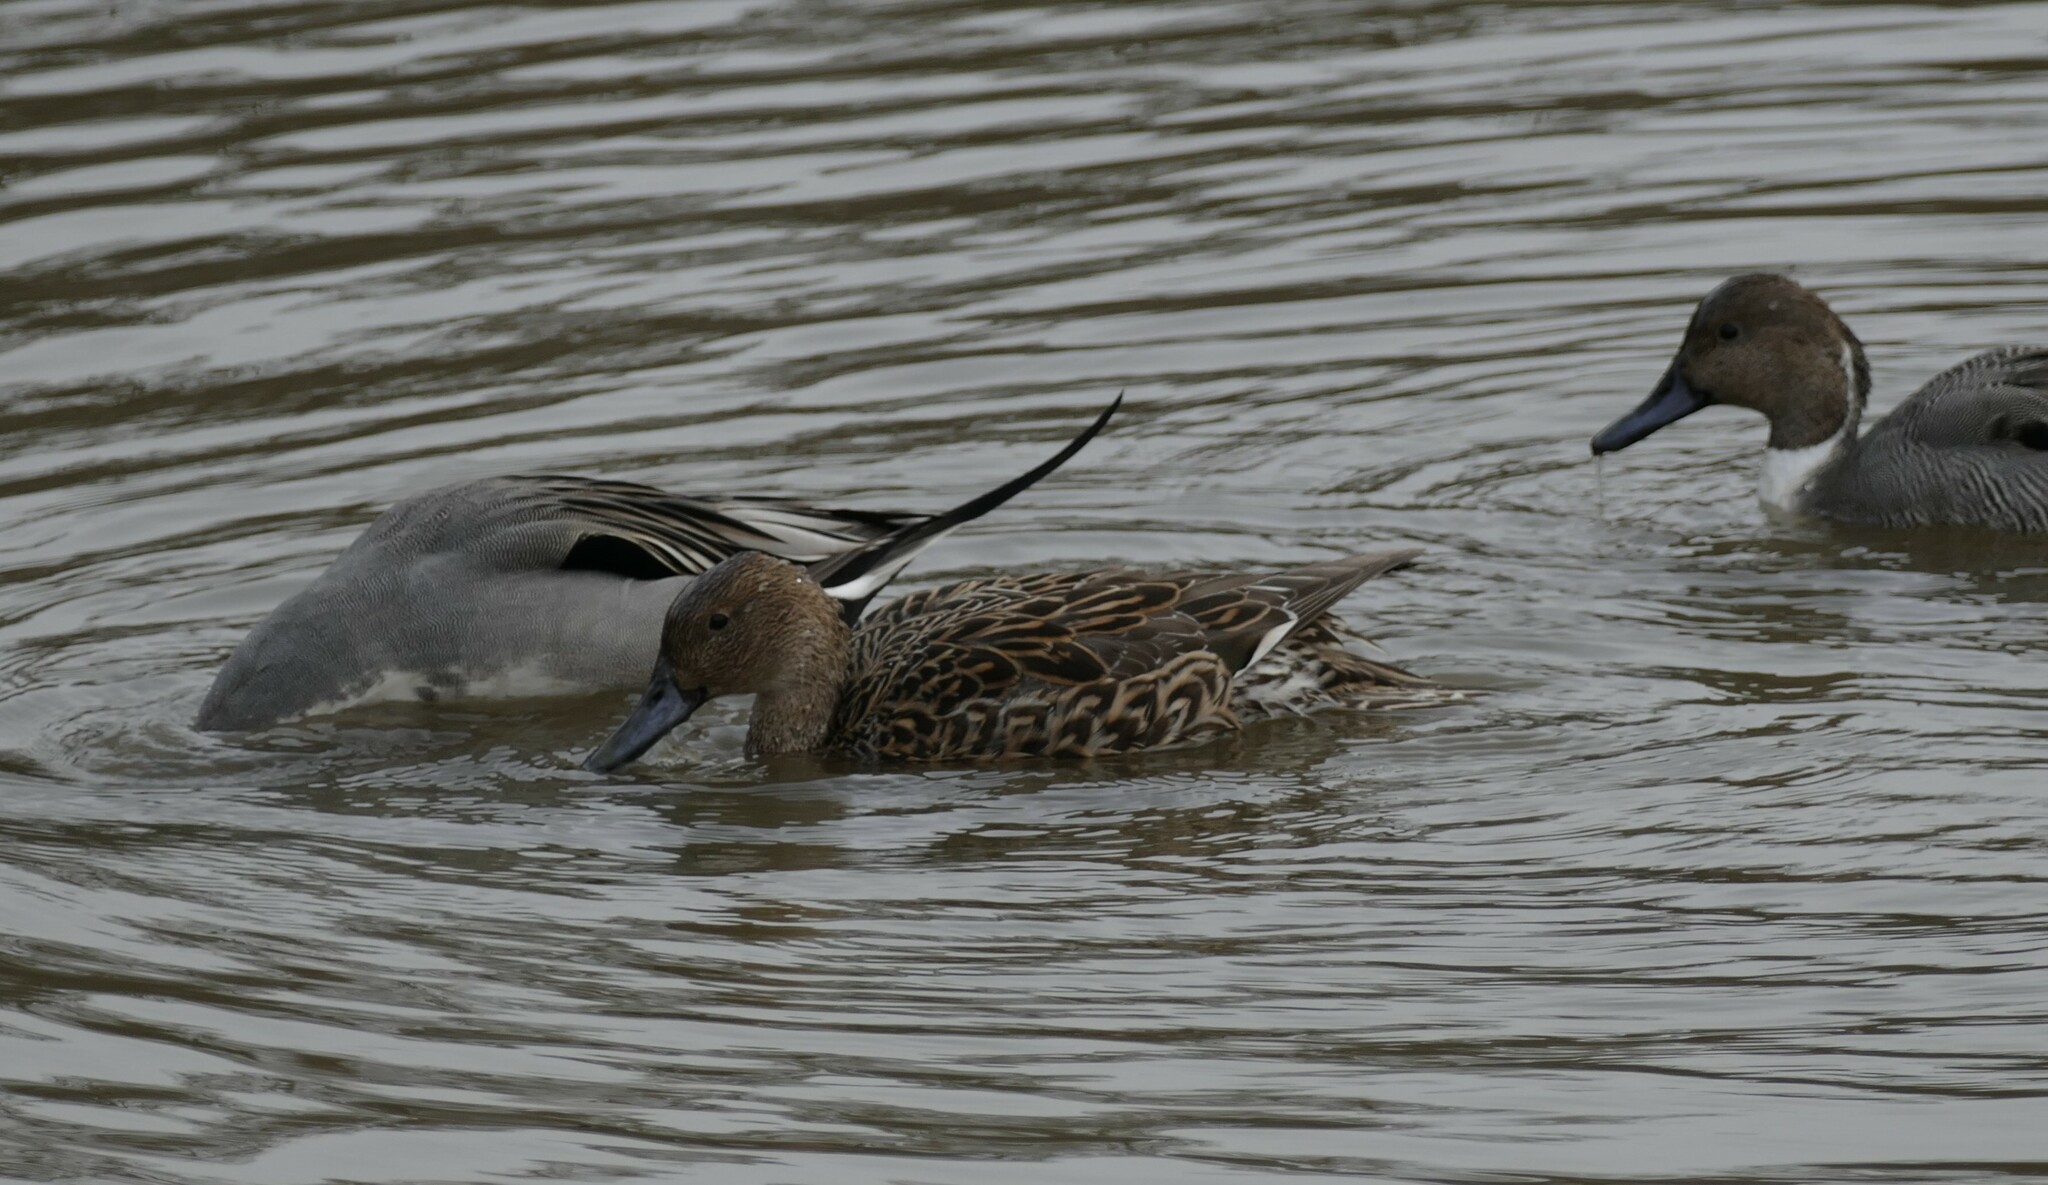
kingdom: Animalia
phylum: Chordata
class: Aves
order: Anseriformes
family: Anatidae
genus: Anas
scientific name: Anas acuta
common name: Northern pintail
